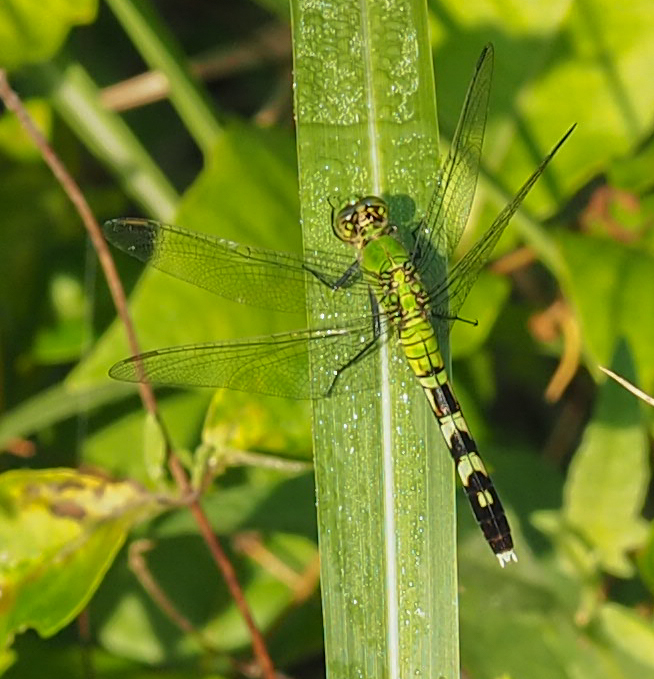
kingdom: Animalia
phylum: Arthropoda
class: Insecta
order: Odonata
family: Libellulidae
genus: Erythemis
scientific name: Erythemis simplicicollis
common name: Eastern pondhawk
